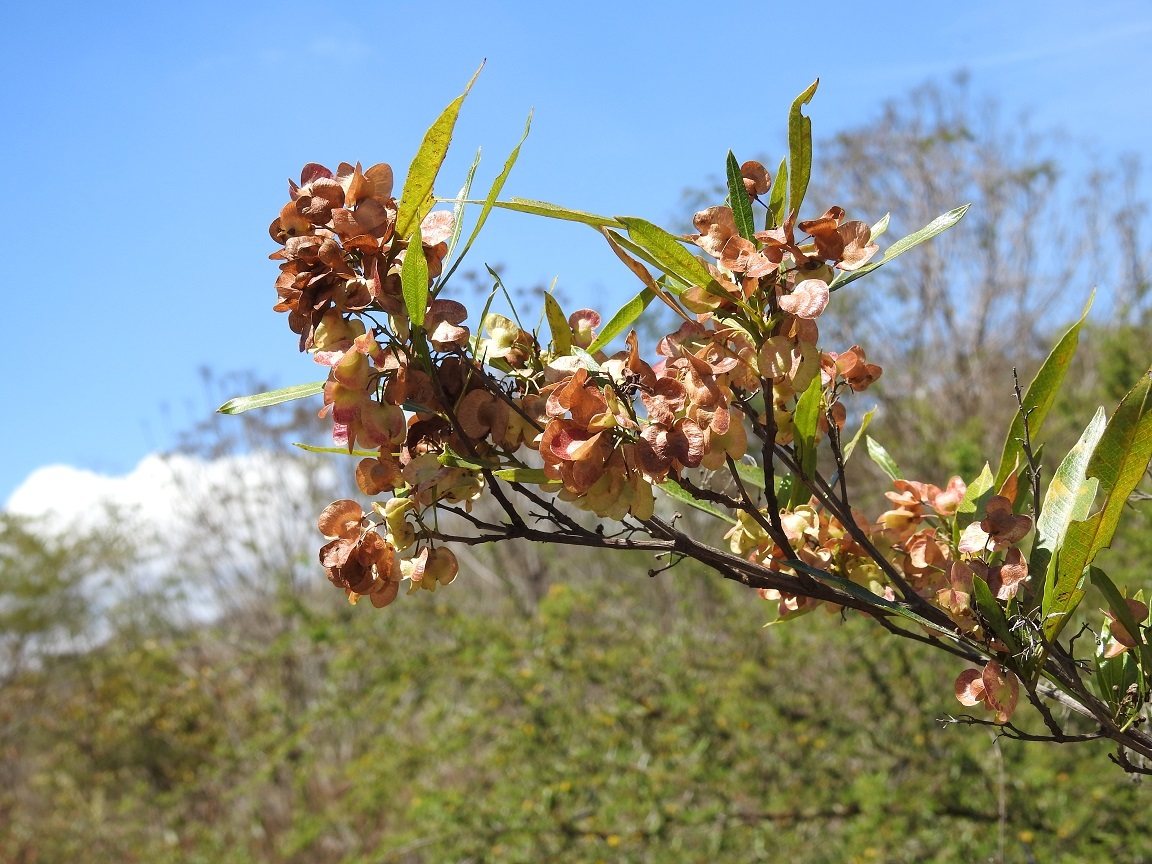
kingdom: Plantae
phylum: Tracheophyta
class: Magnoliopsida
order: Sapindales
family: Sapindaceae
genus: Dodonaea
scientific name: Dodonaea viscosa
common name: Hopbush
